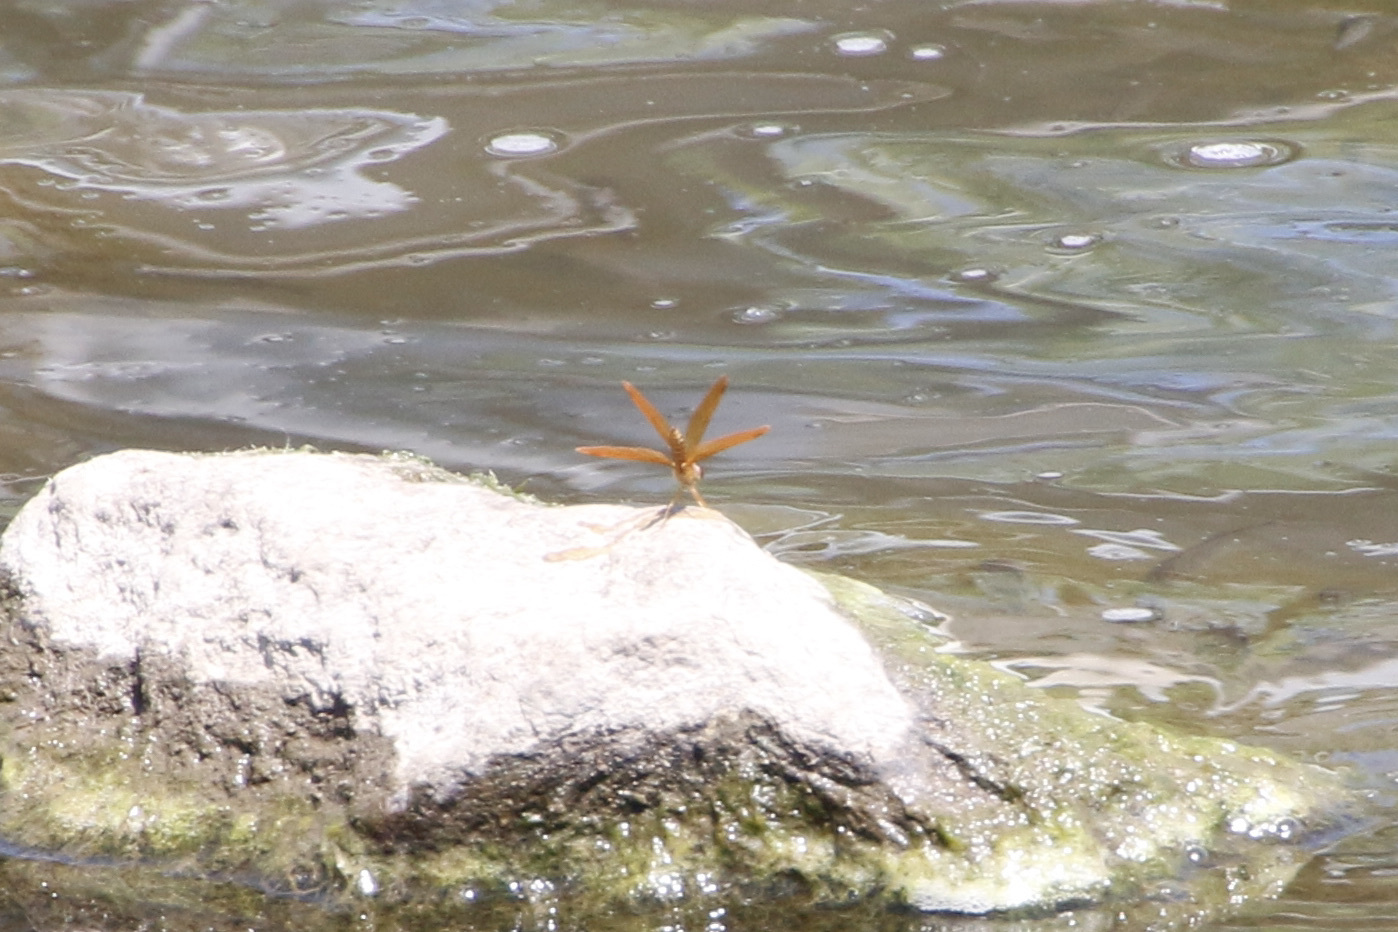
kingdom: Animalia
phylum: Arthropoda
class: Insecta
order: Odonata
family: Libellulidae
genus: Perithemis
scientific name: Perithemis tenera
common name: Eastern amberwing
